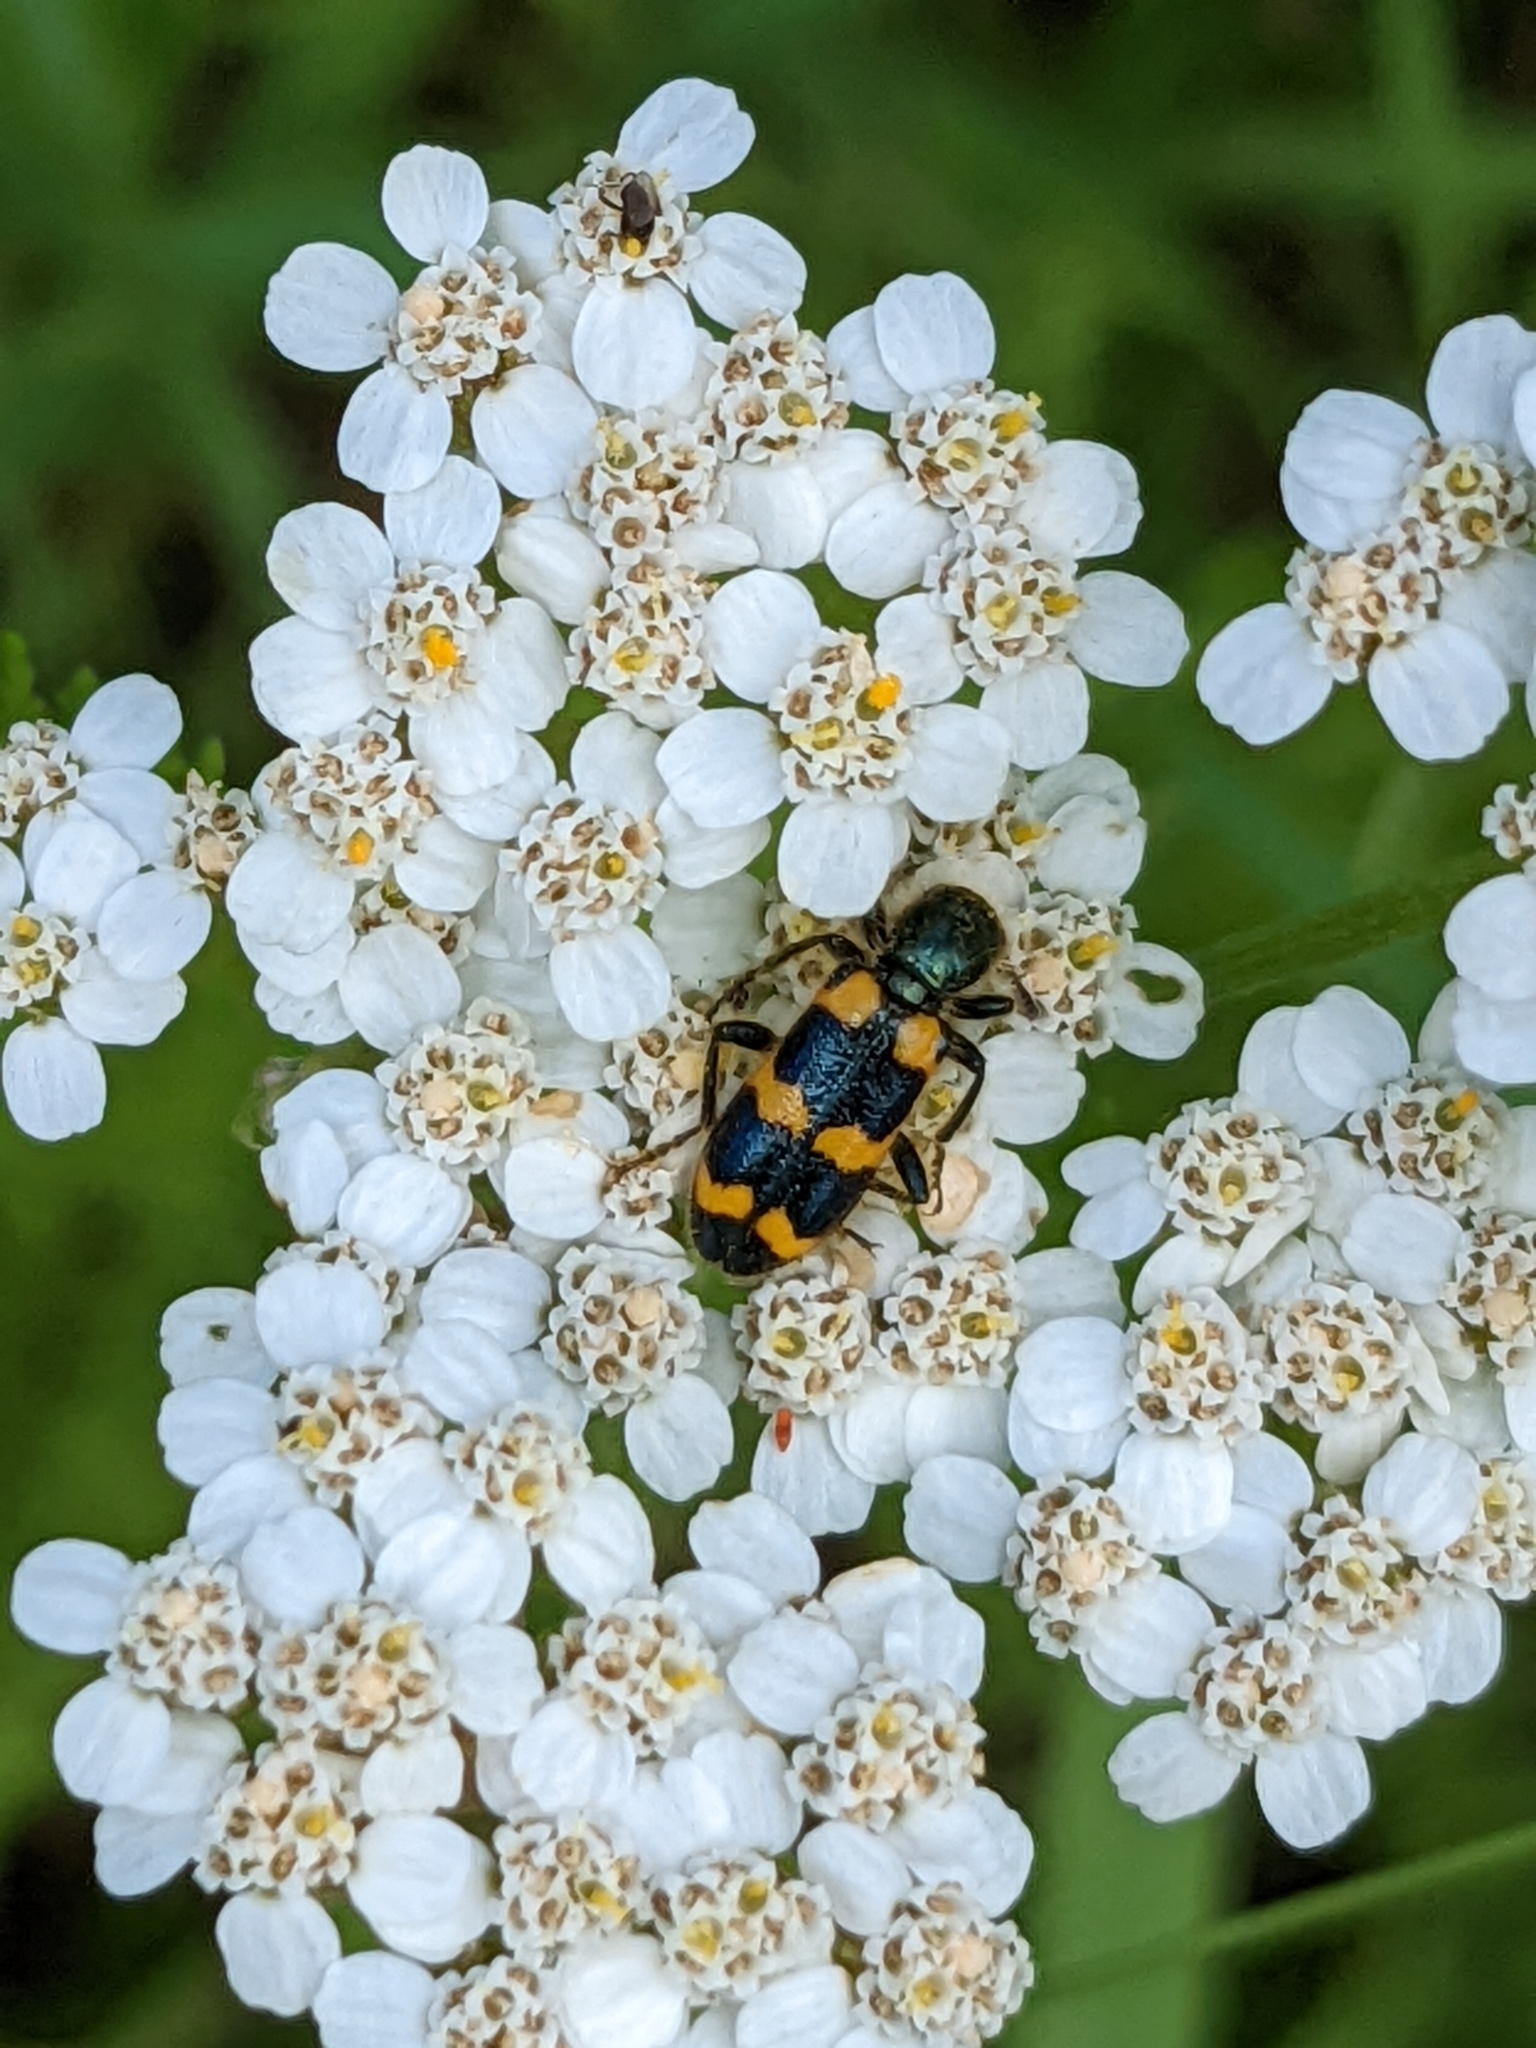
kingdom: Animalia
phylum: Arthropoda
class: Insecta
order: Coleoptera
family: Cleridae
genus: Trichodes
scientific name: Trichodes nutalli
